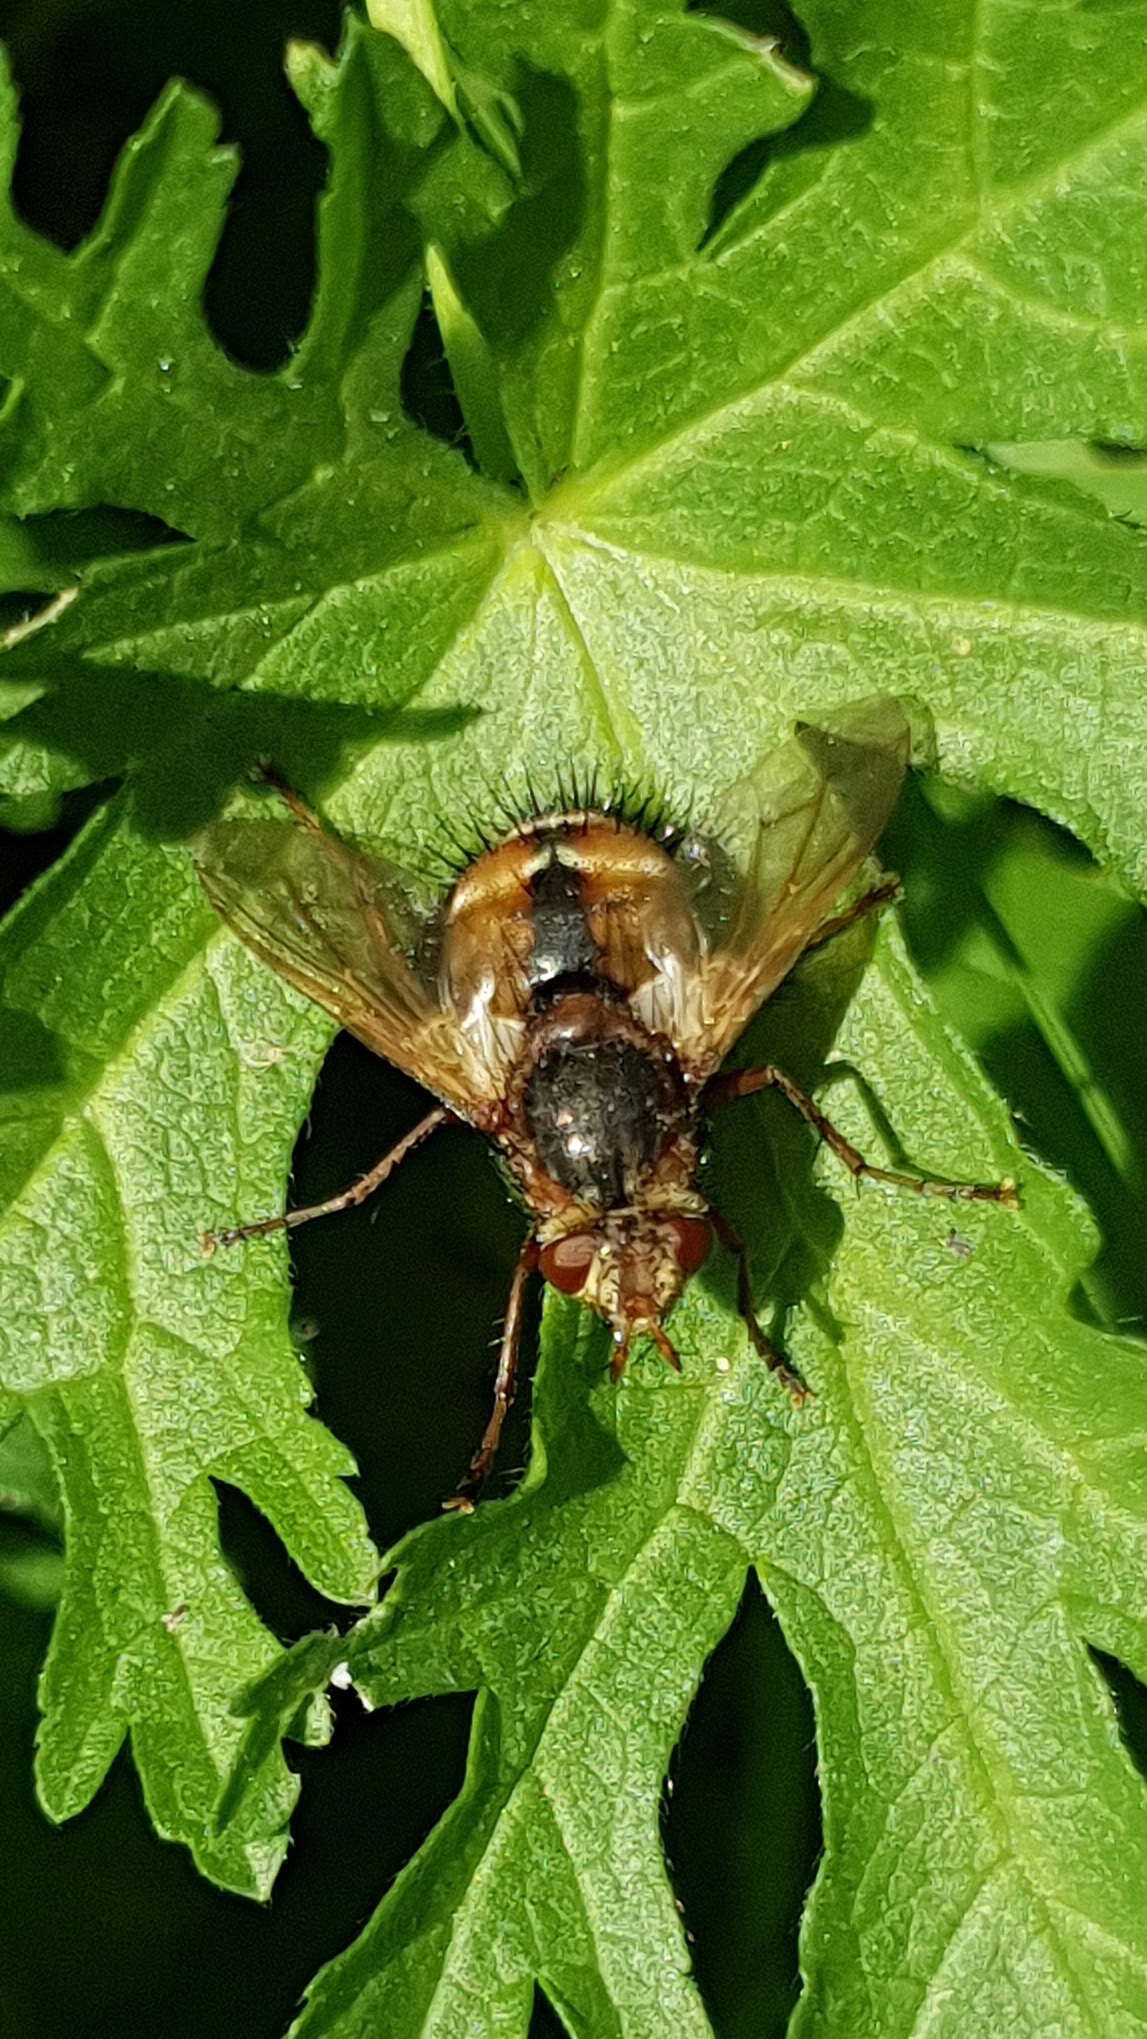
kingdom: Animalia
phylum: Arthropoda
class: Insecta
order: Diptera
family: Tachinidae
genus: Tachina
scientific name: Tachina fera
